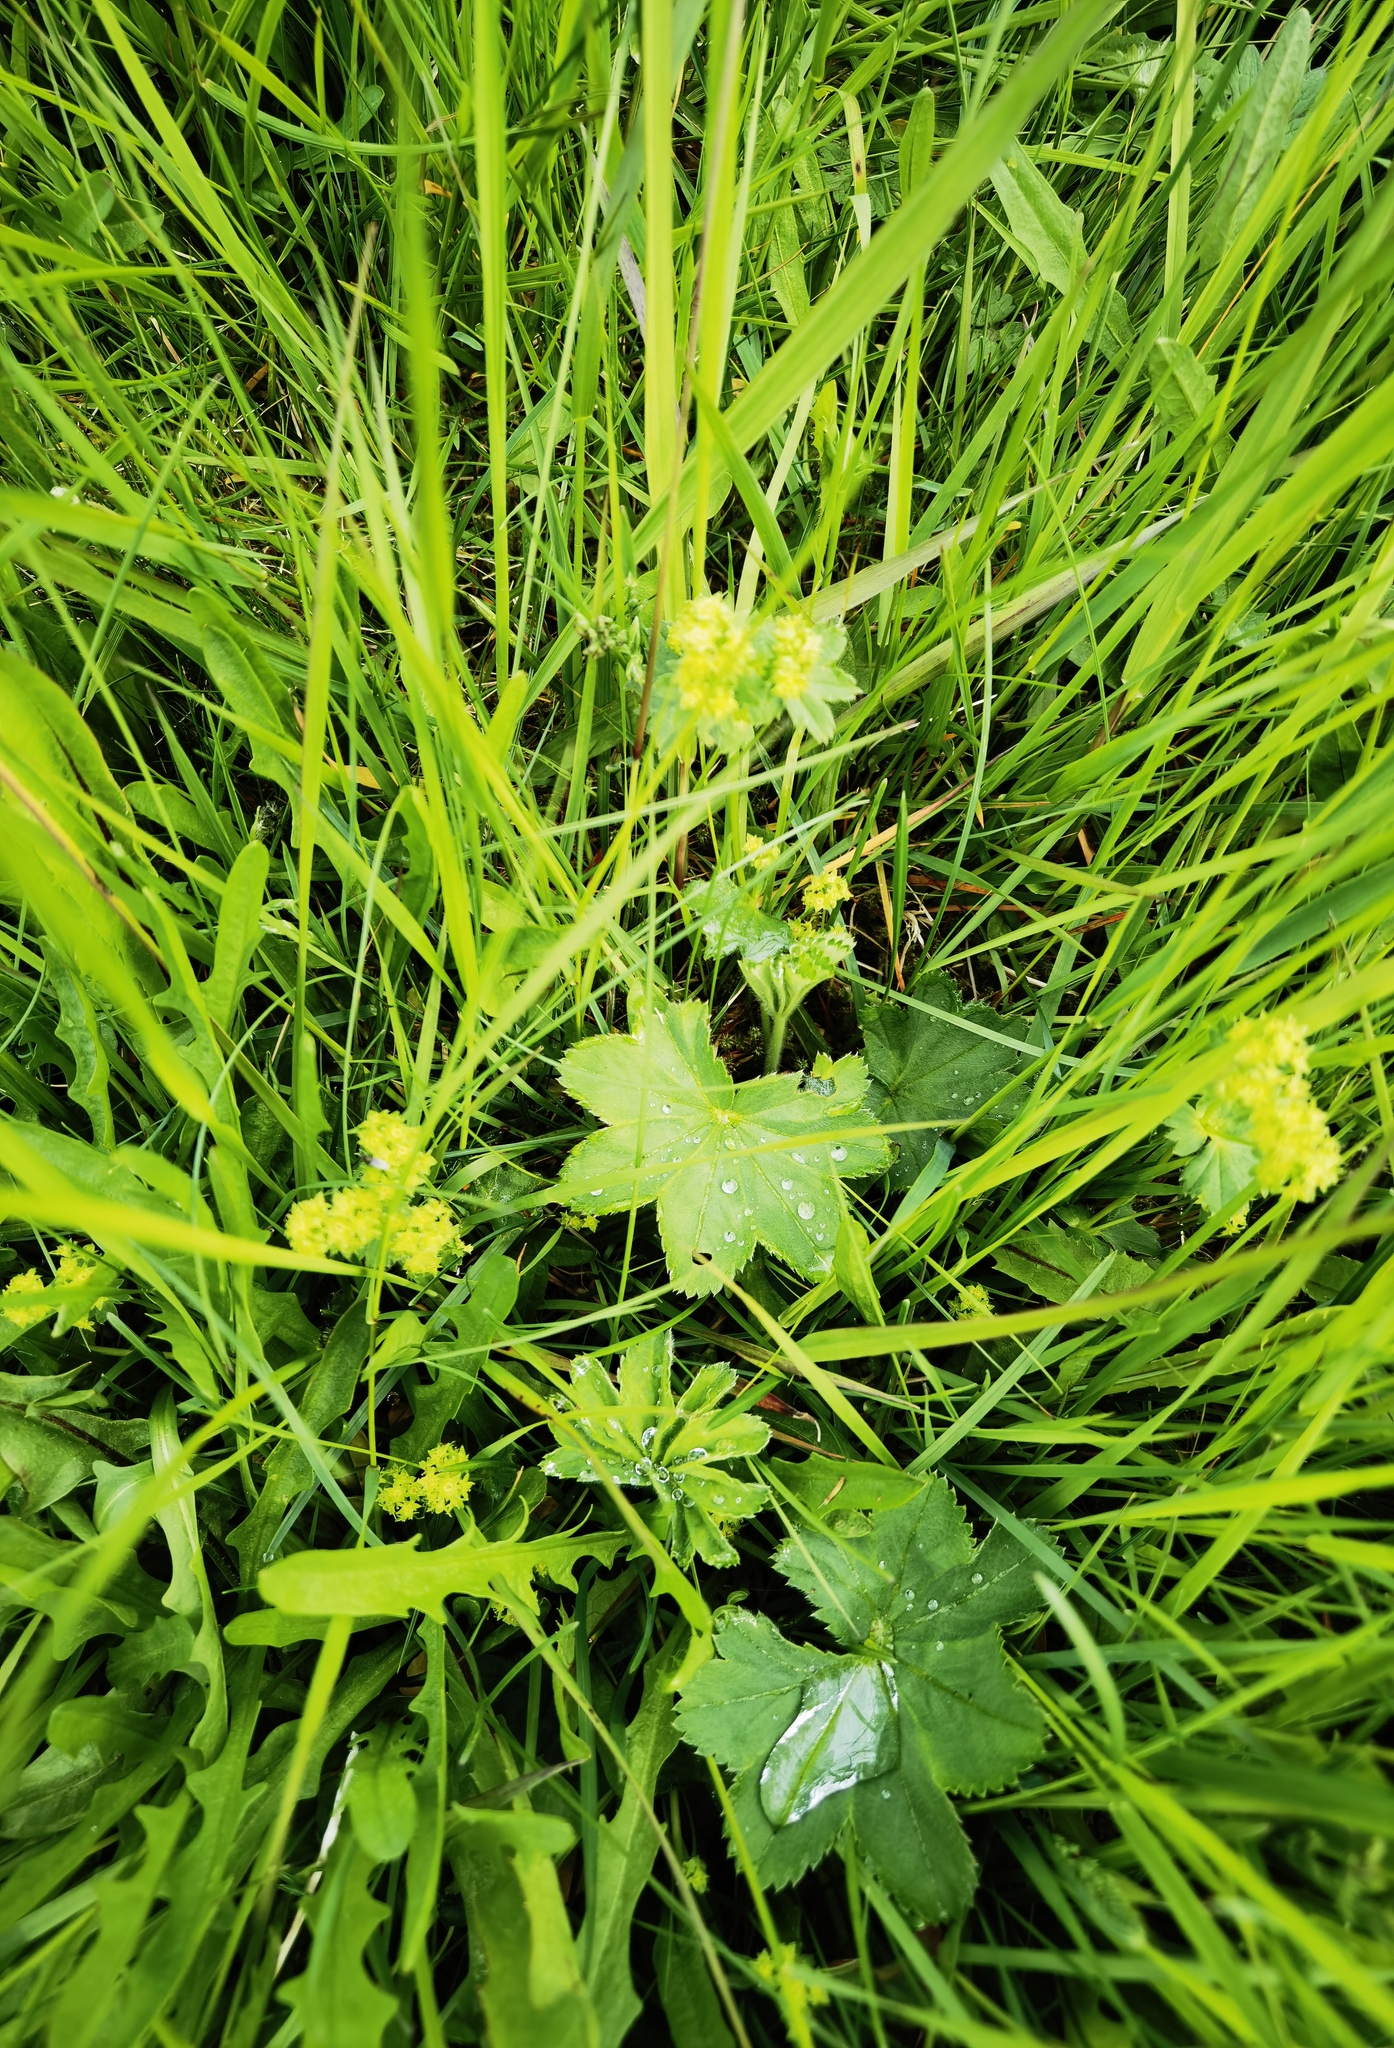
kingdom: Plantae
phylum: Tracheophyta
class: Magnoliopsida
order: Rosales
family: Rosaceae
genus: Alchemilla
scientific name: Alchemilla alpina
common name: Alpine lady's-mantle
